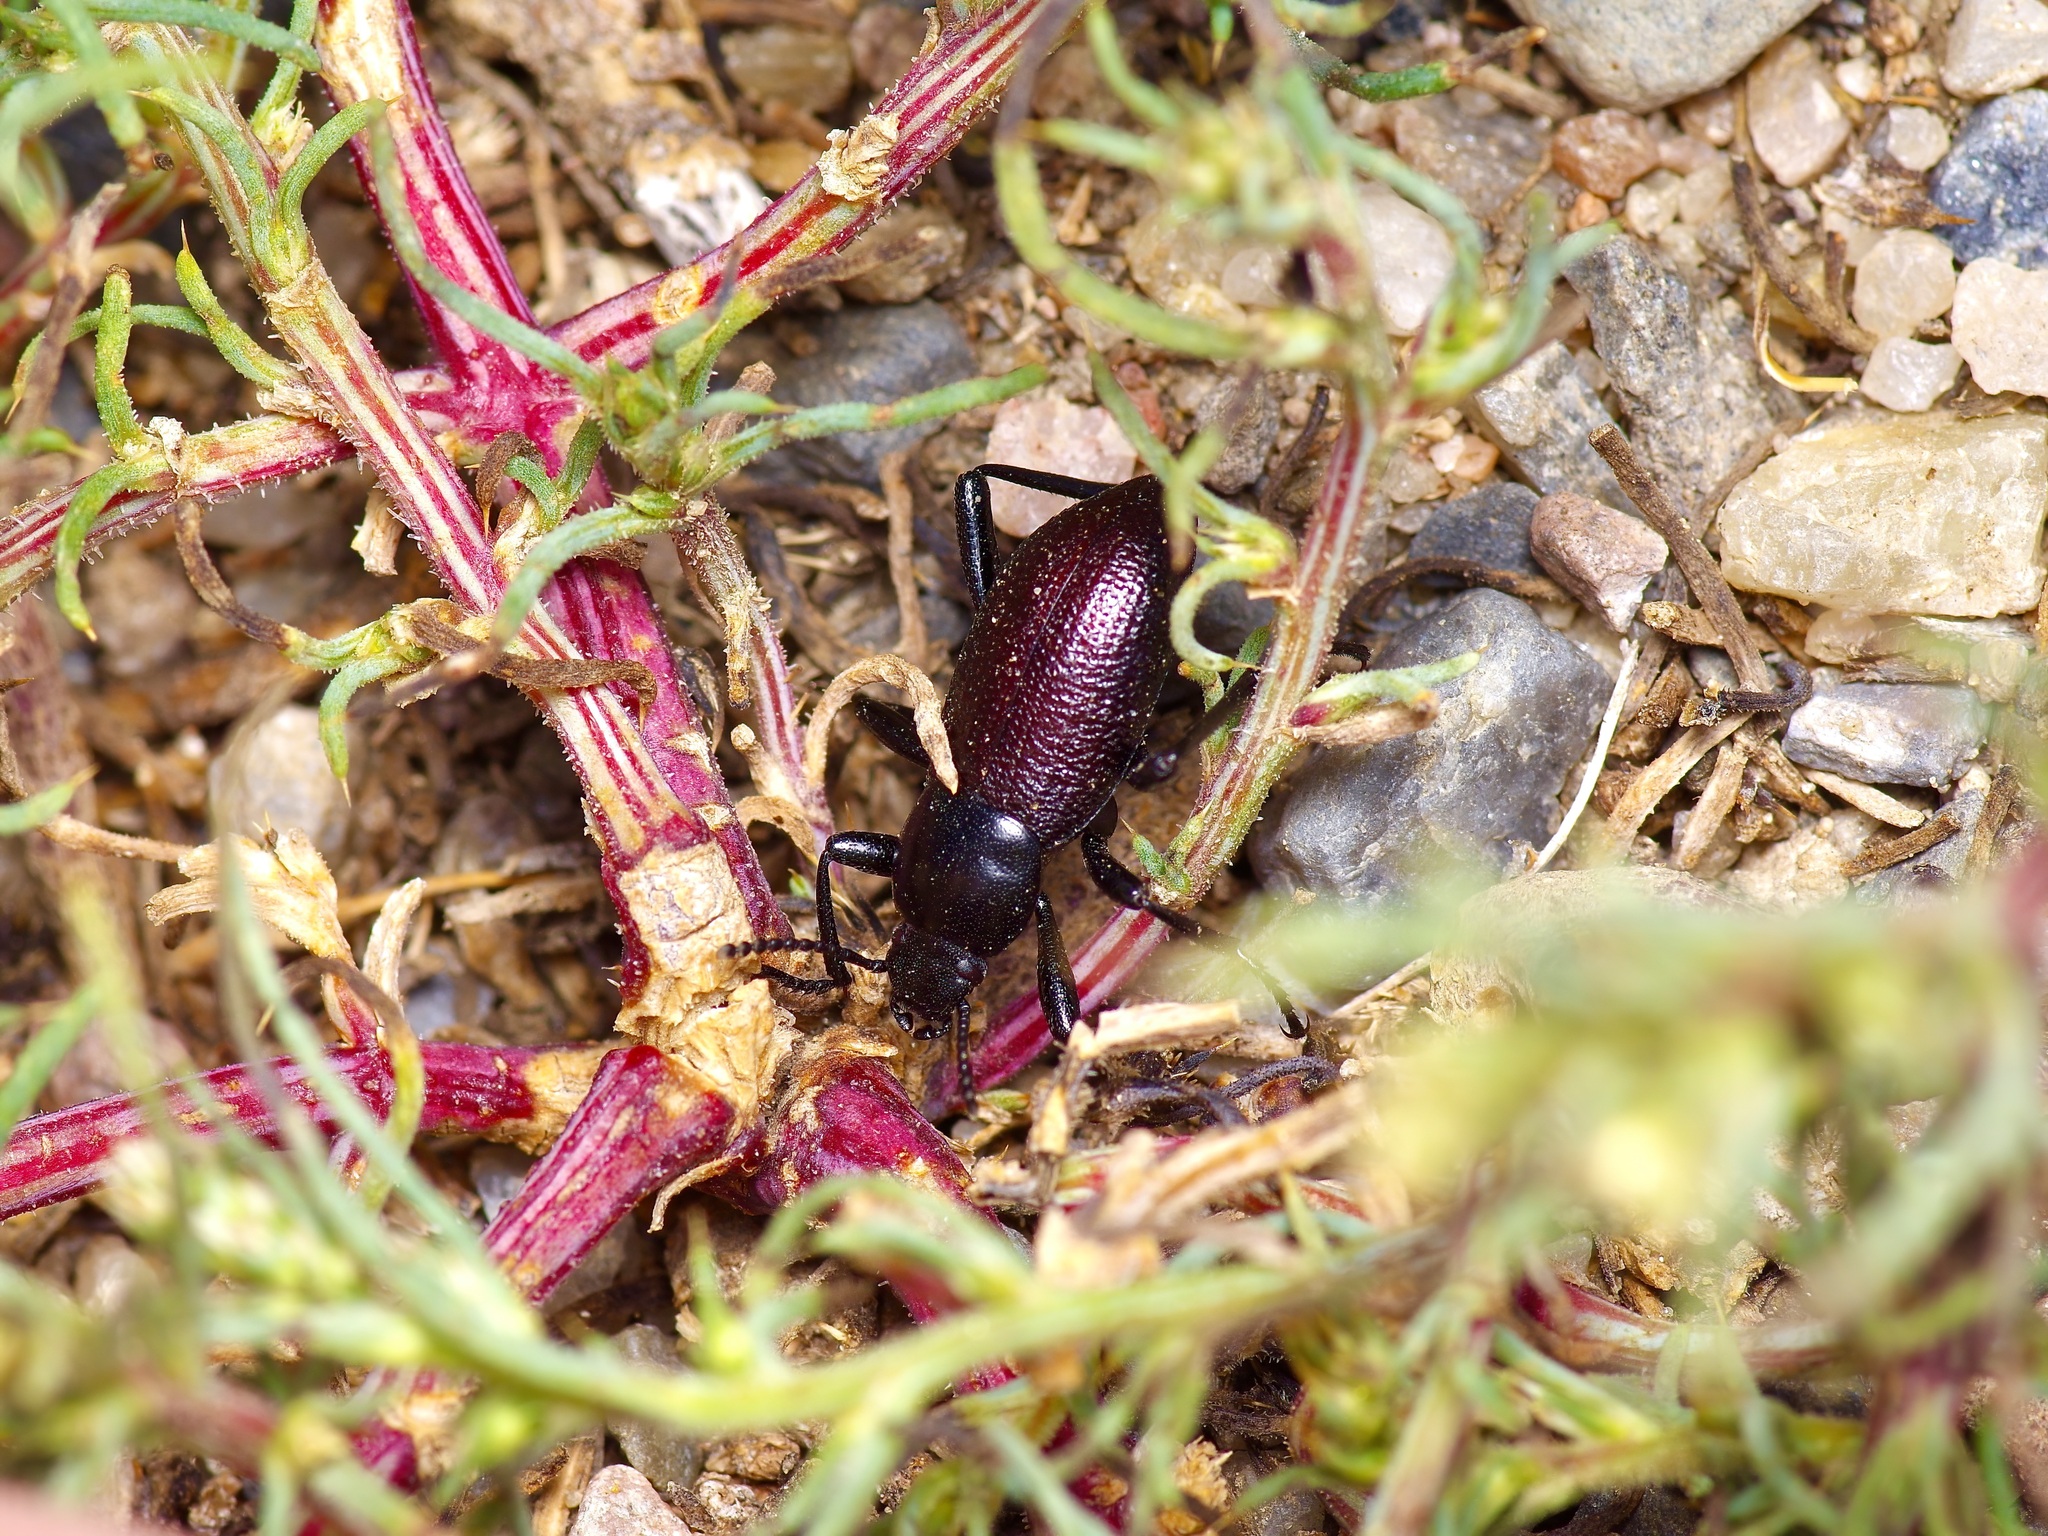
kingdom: Animalia
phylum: Arthropoda
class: Insecta
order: Coleoptera
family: Tenebrionidae
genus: Eleodes
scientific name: Eleodes carbonaria
